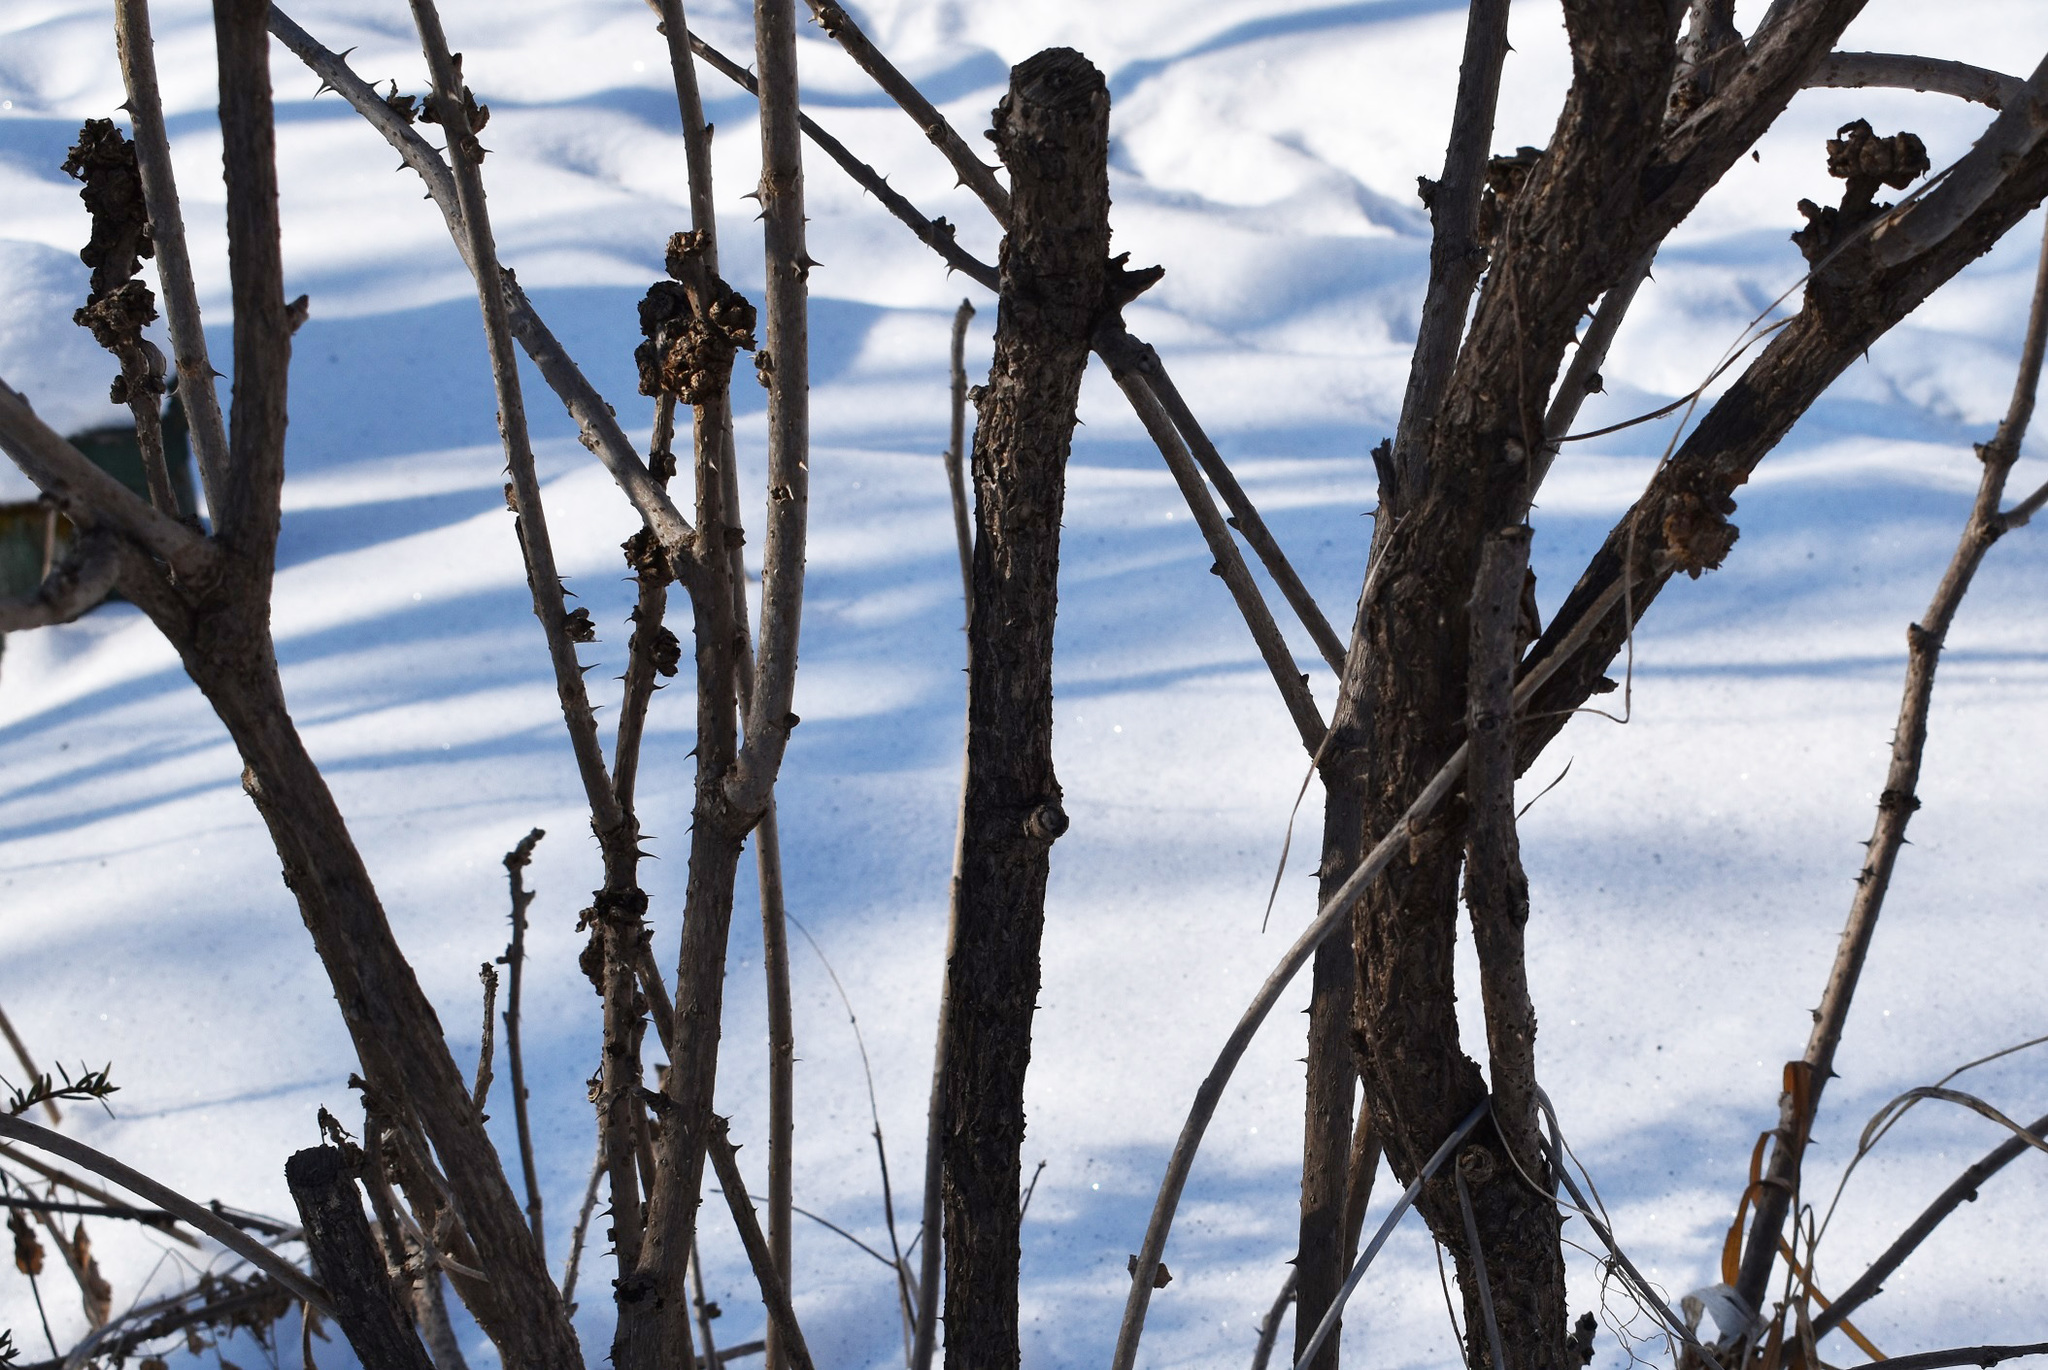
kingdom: Plantae
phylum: Tracheophyta
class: Magnoliopsida
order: Apiales
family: Araliaceae
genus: Eleutherococcus
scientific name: Eleutherococcus sessiliflorus
